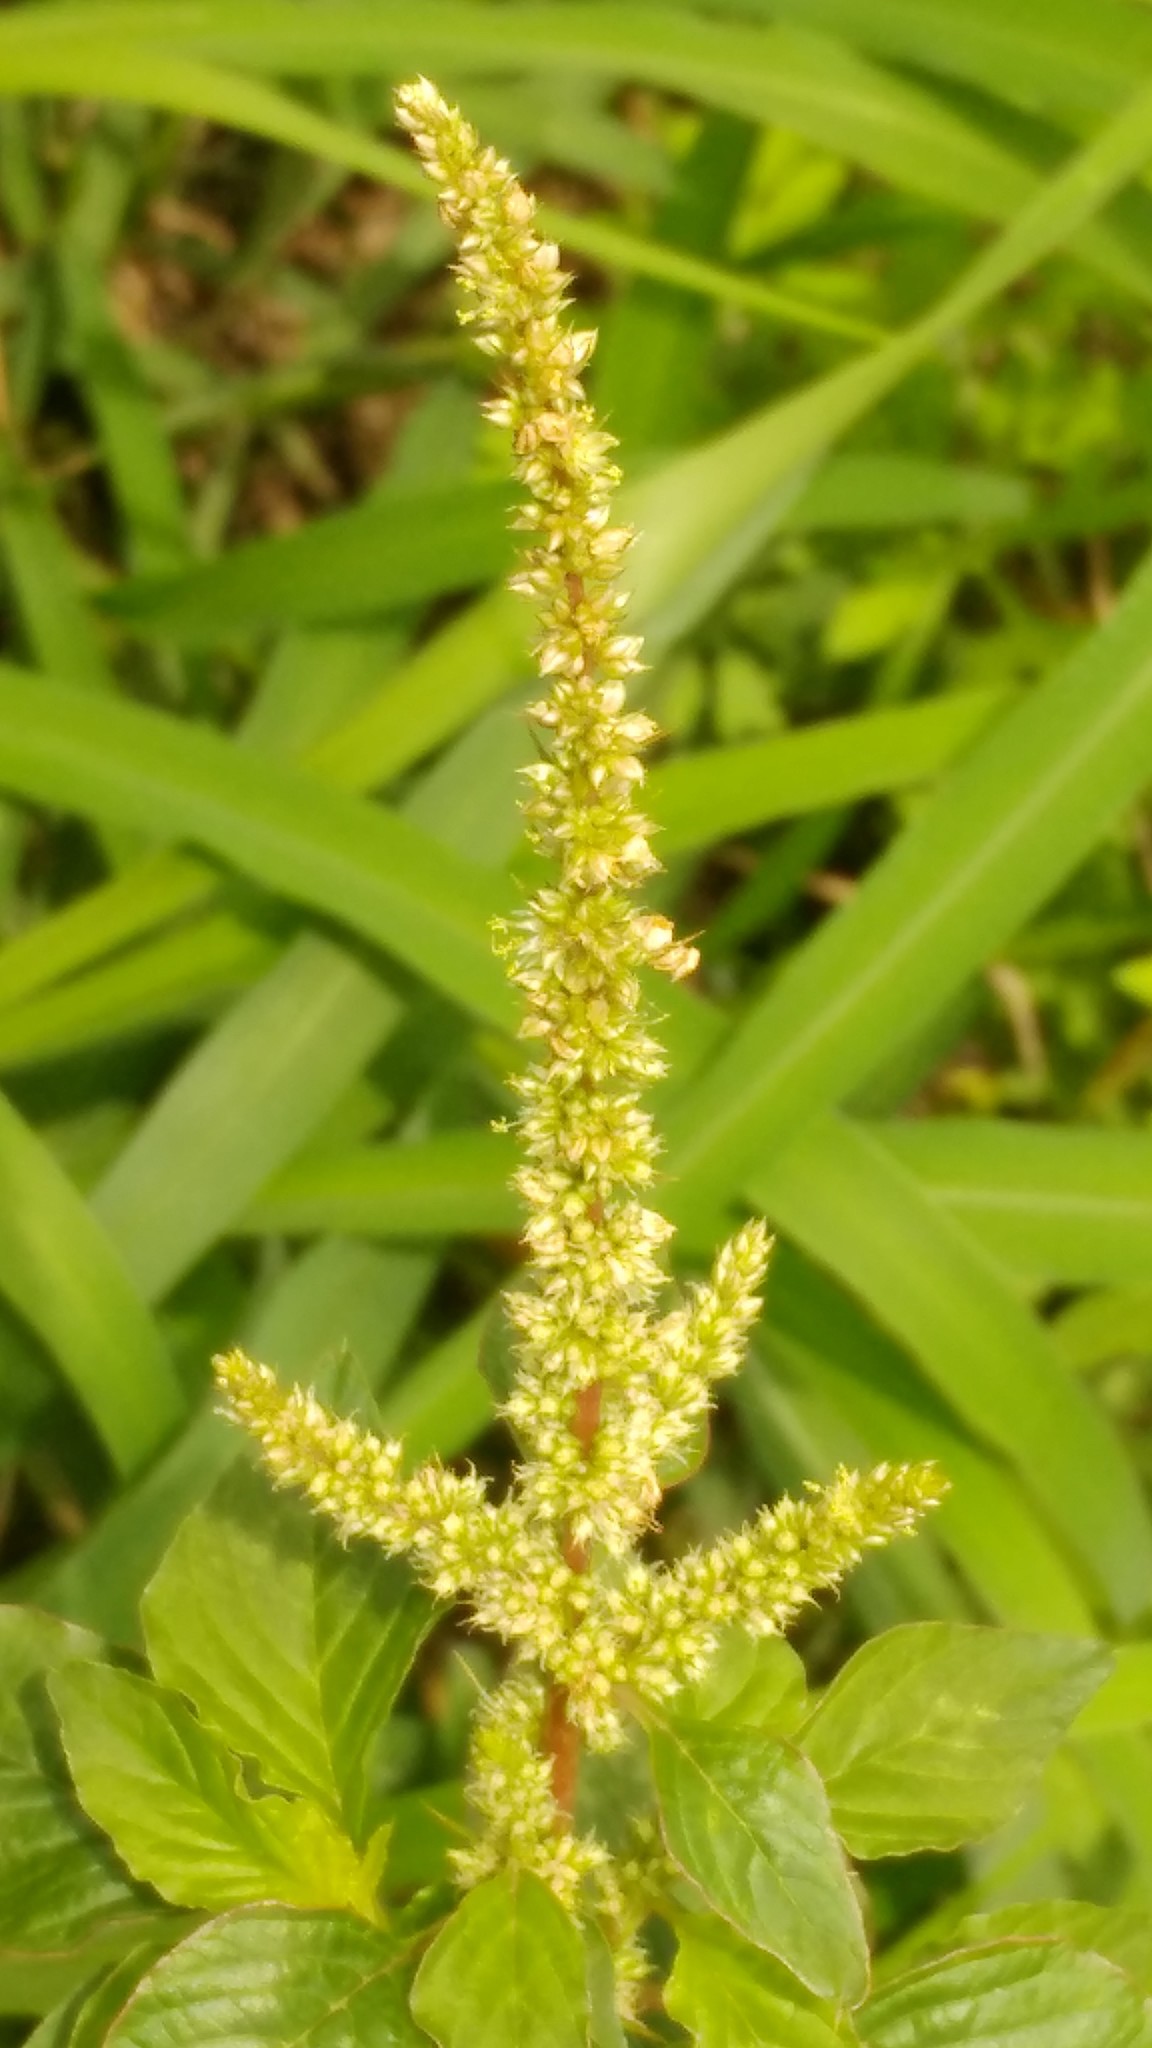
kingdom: Plantae
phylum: Tracheophyta
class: Magnoliopsida
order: Caryophyllales
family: Amaranthaceae
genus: Amaranthus
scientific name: Amaranthus hybridus
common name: Green amaranth
